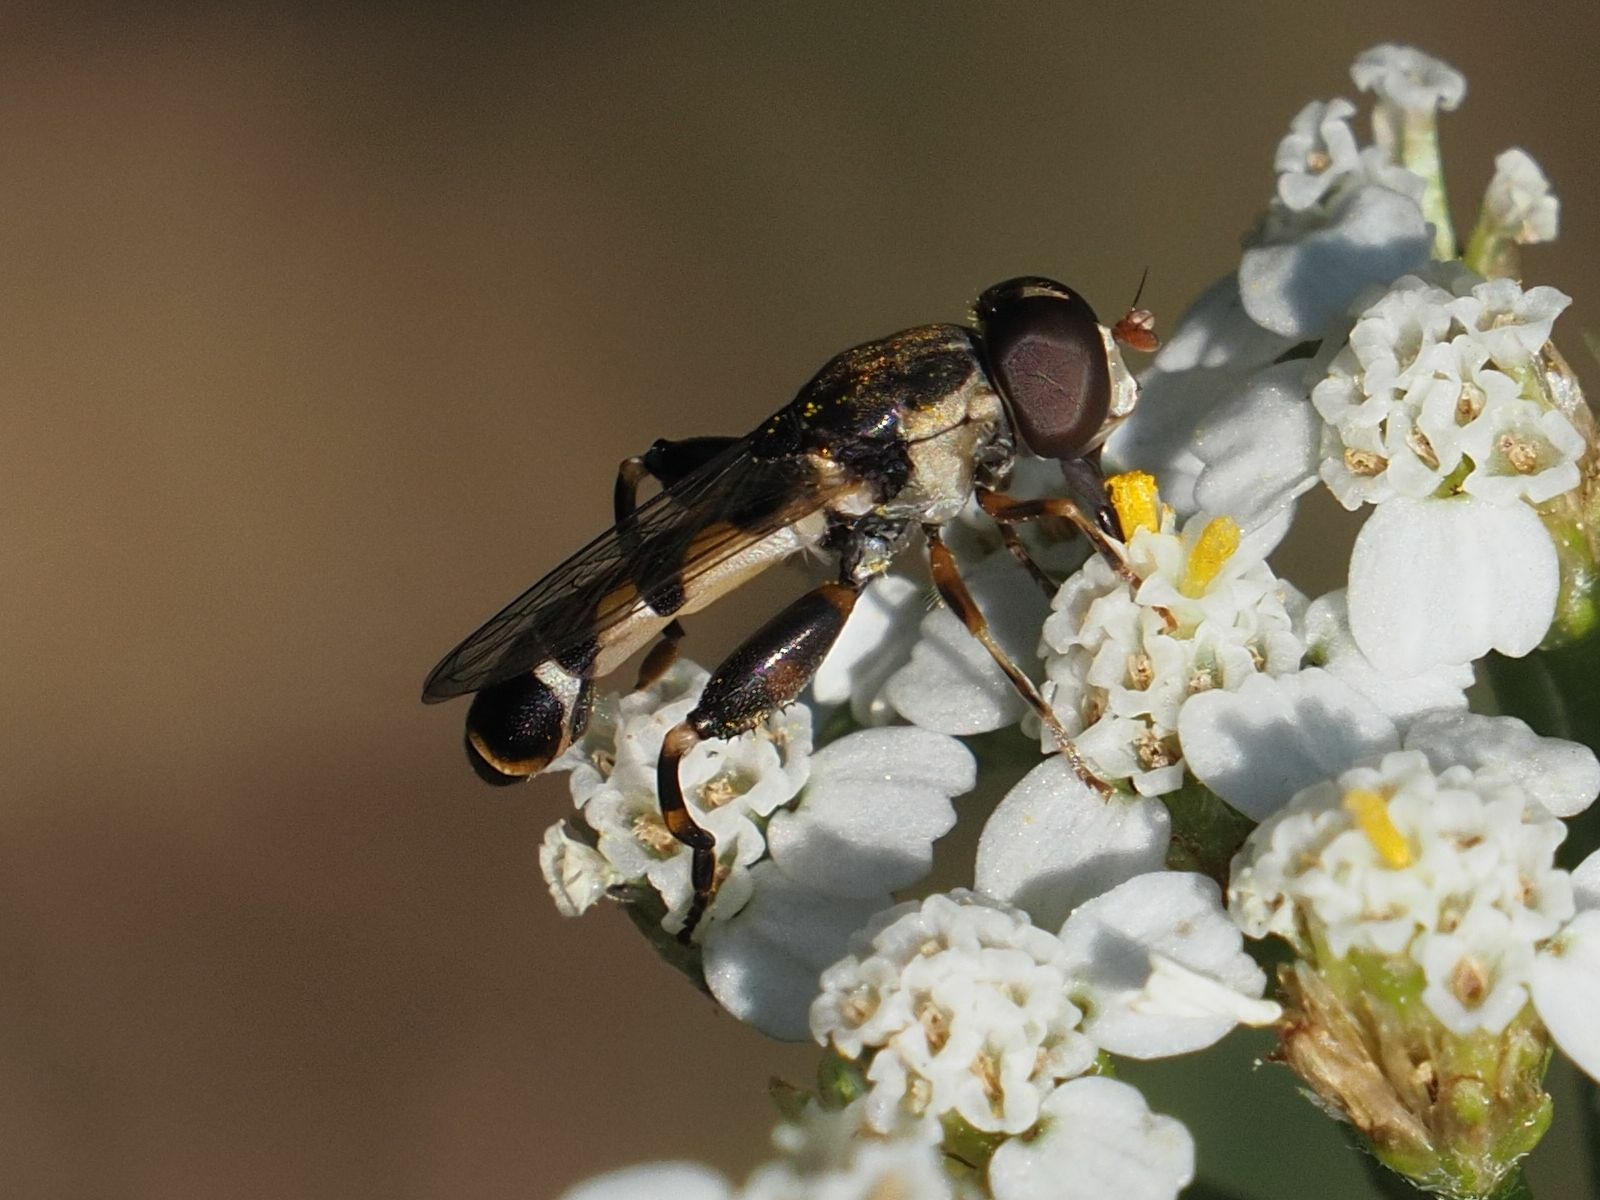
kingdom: Animalia
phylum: Arthropoda
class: Insecta
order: Diptera
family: Syrphidae
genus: Syritta
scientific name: Syritta pipiens
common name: Hover fly
